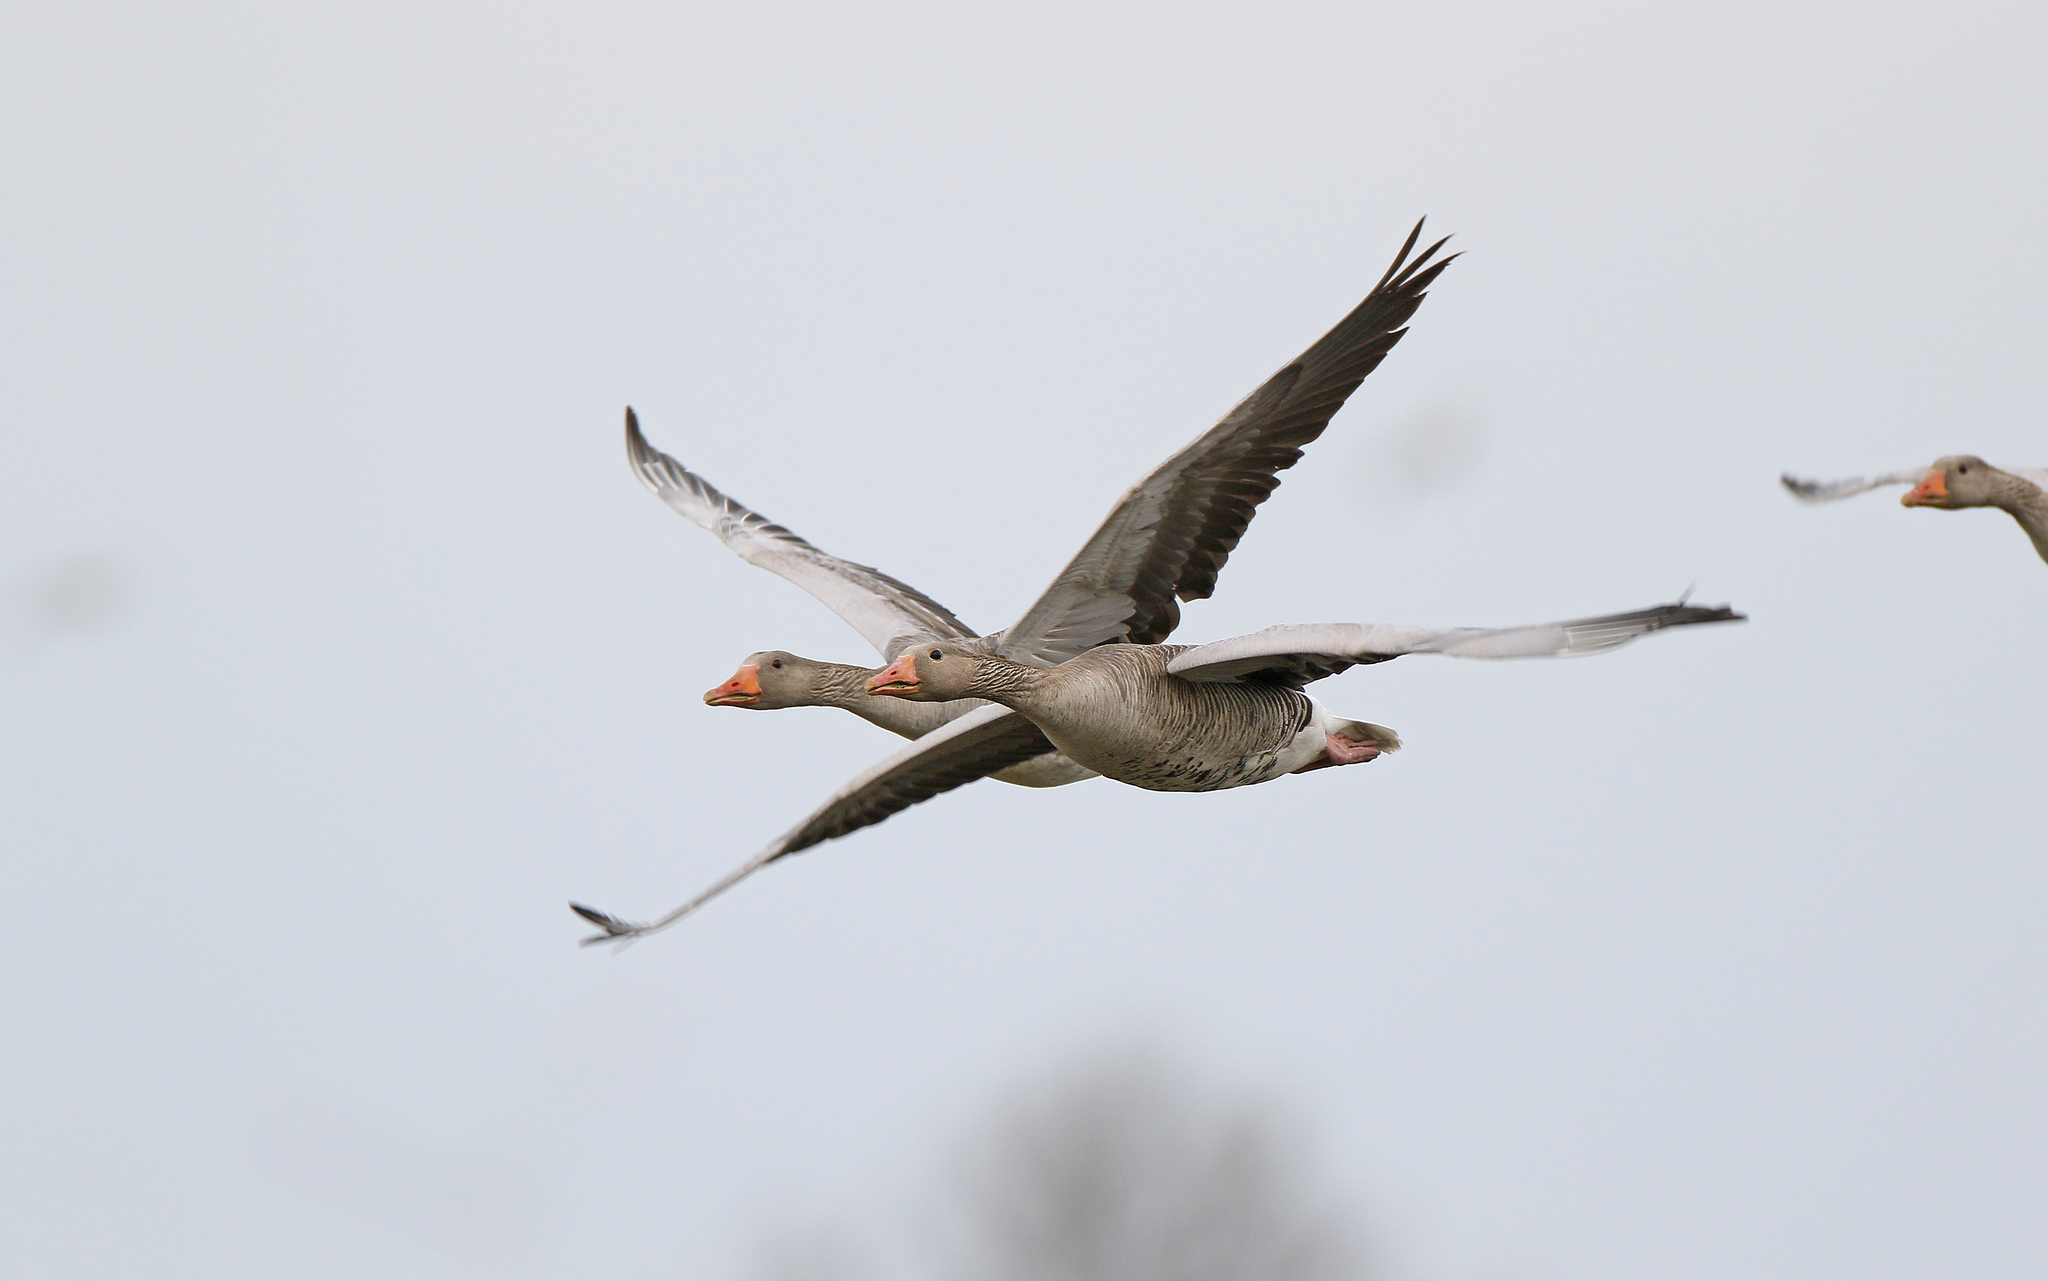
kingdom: Animalia
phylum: Chordata
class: Aves
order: Anseriformes
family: Anatidae
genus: Anser
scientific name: Anser anser
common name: Greylag goose
